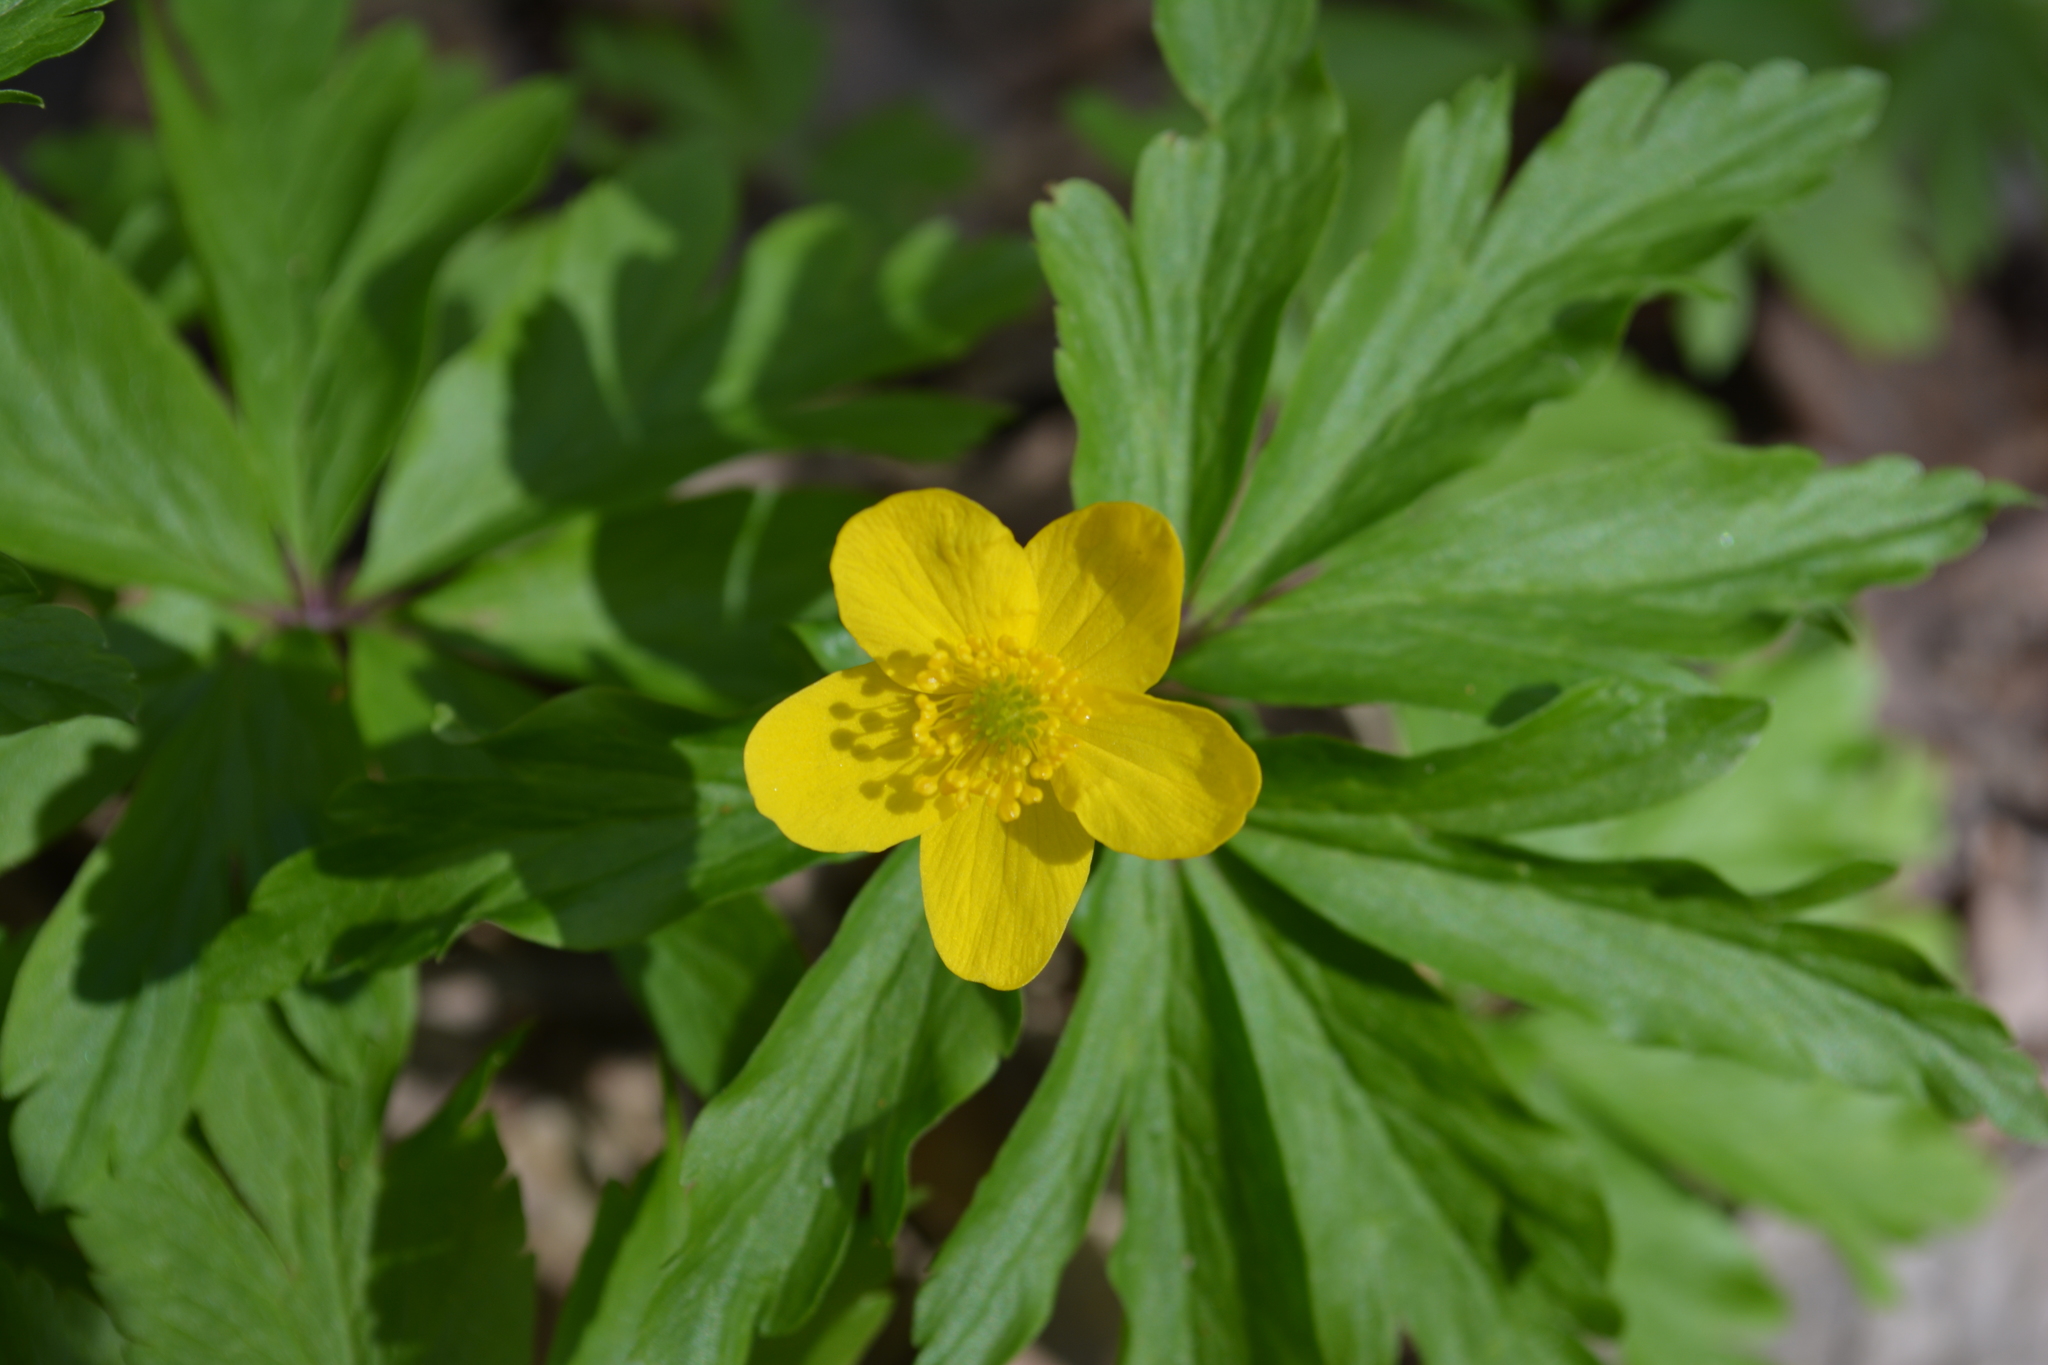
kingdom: Plantae
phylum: Tracheophyta
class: Magnoliopsida
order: Ranunculales
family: Ranunculaceae
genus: Anemone
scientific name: Anemone ranunculoides
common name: Yellow anemone
